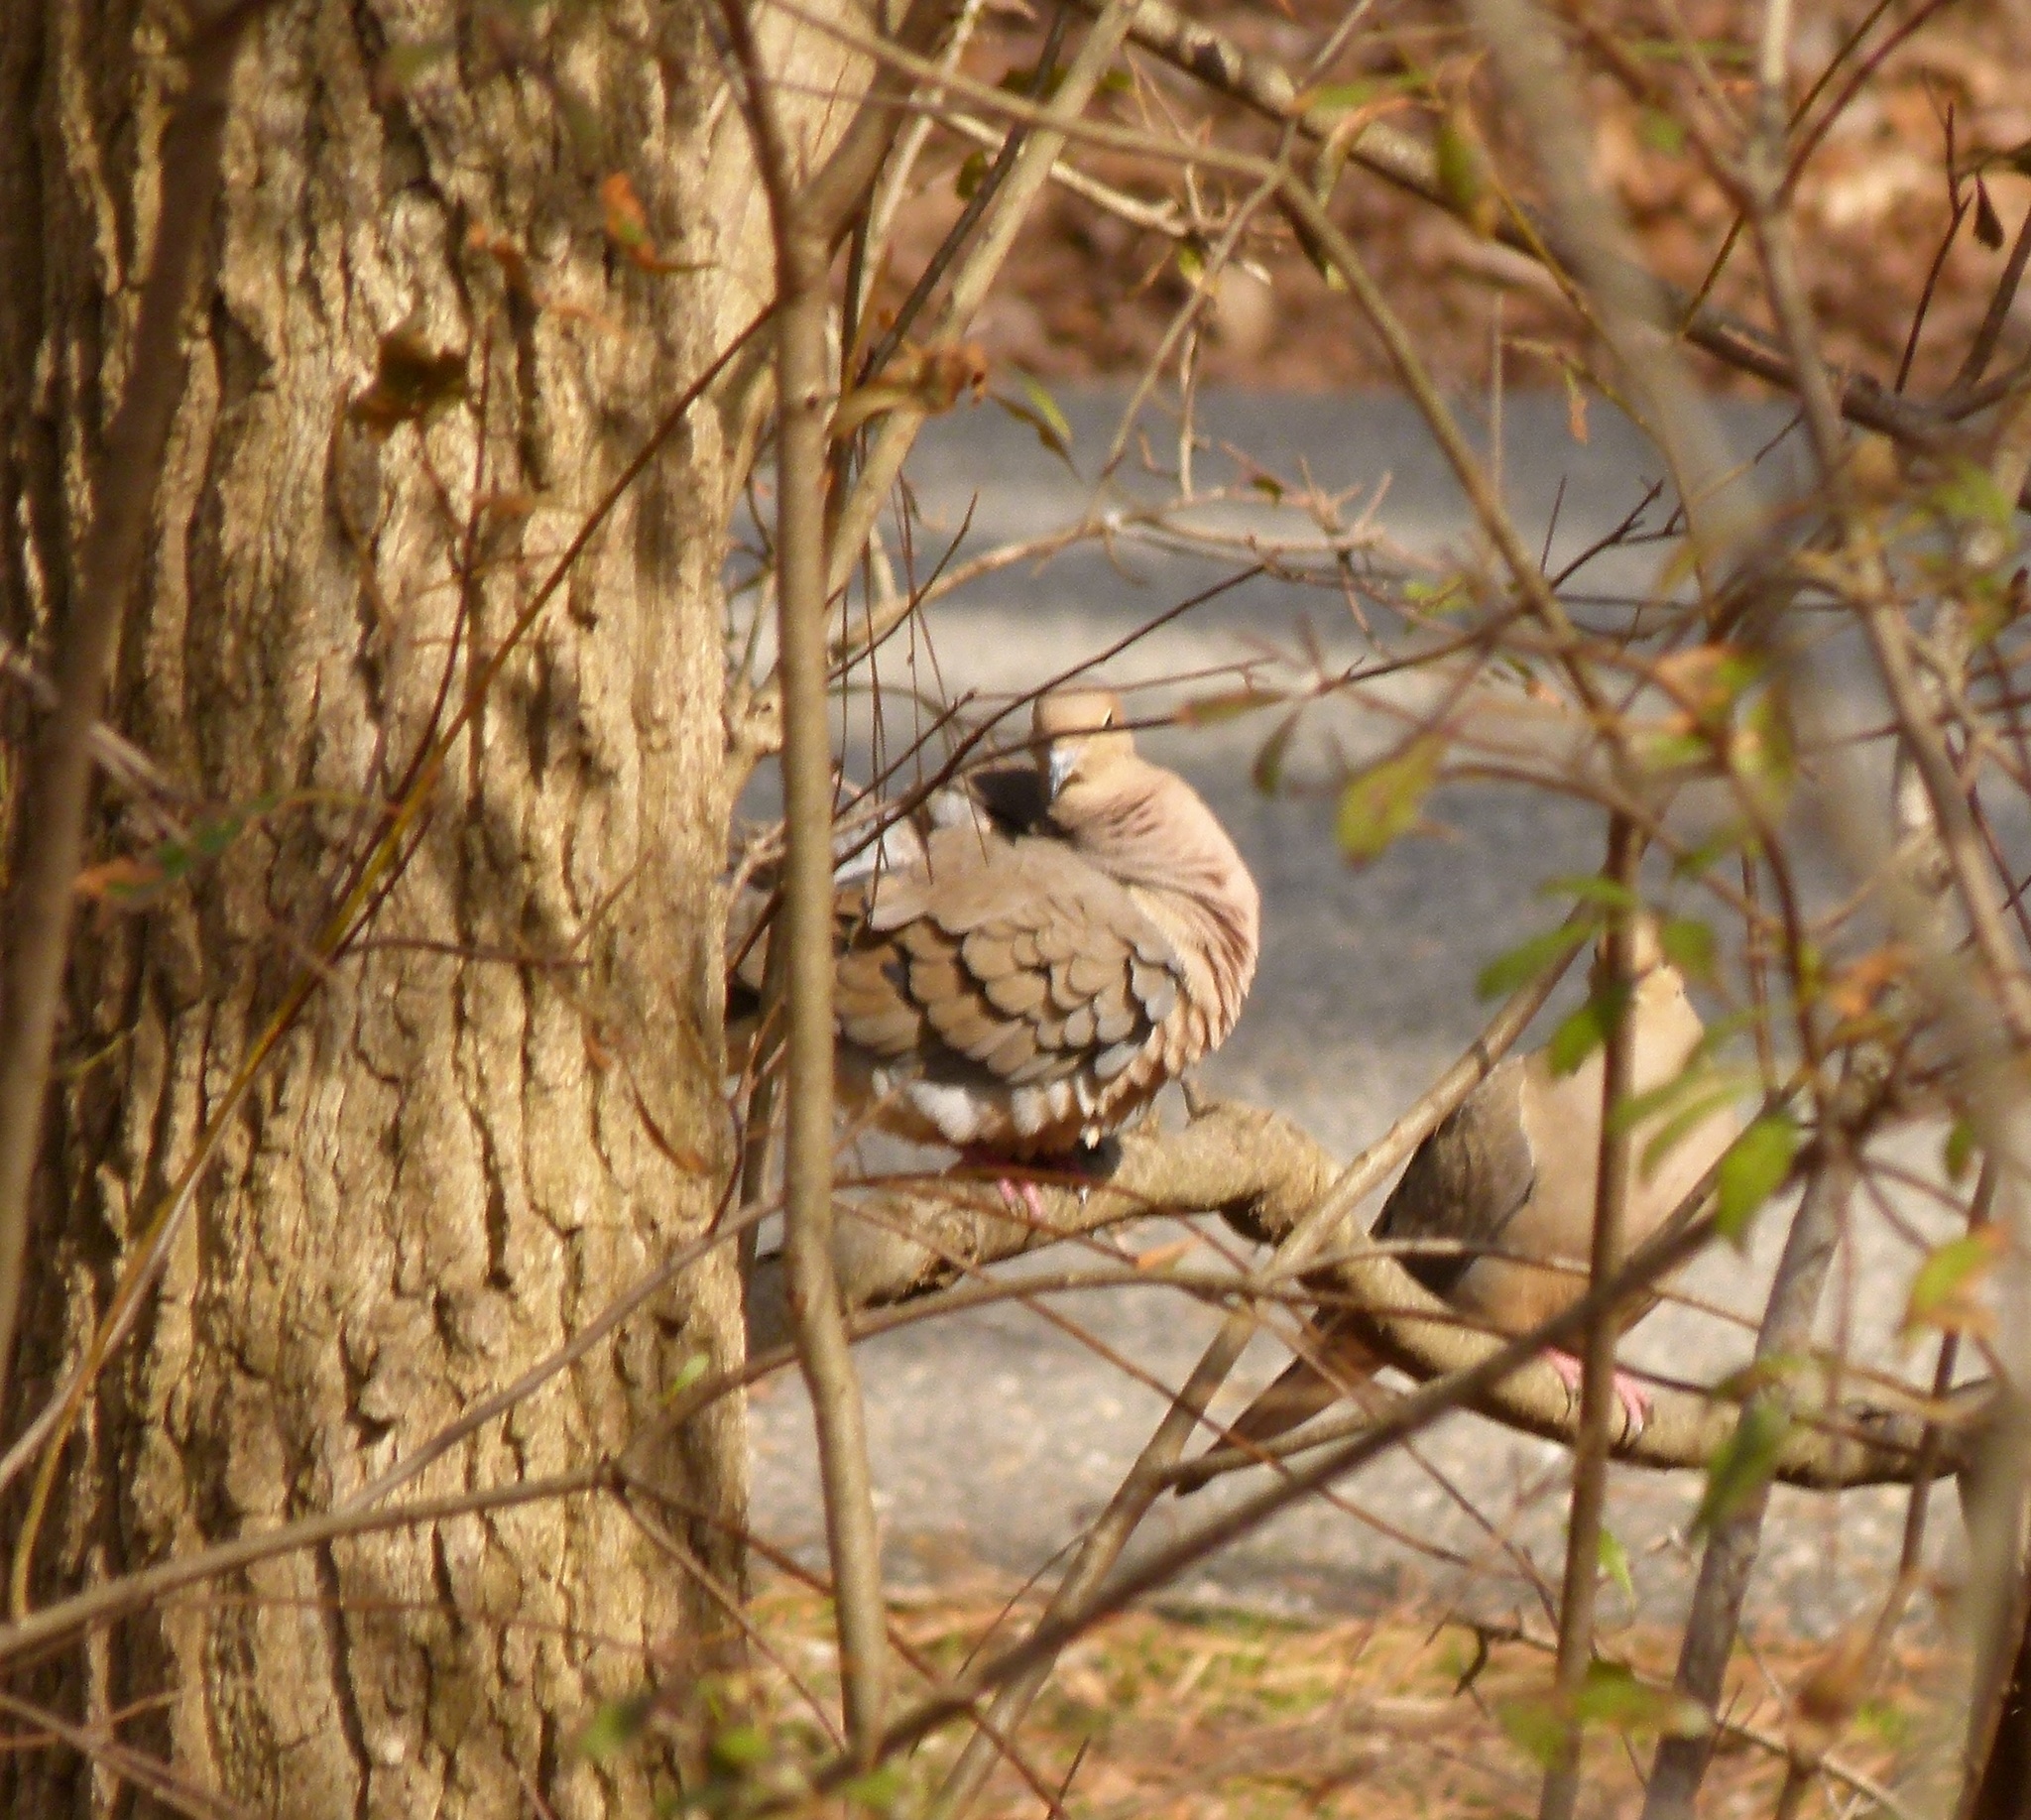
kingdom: Animalia
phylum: Chordata
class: Aves
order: Columbiformes
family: Columbidae
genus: Zenaida
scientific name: Zenaida macroura
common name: Mourning dove
